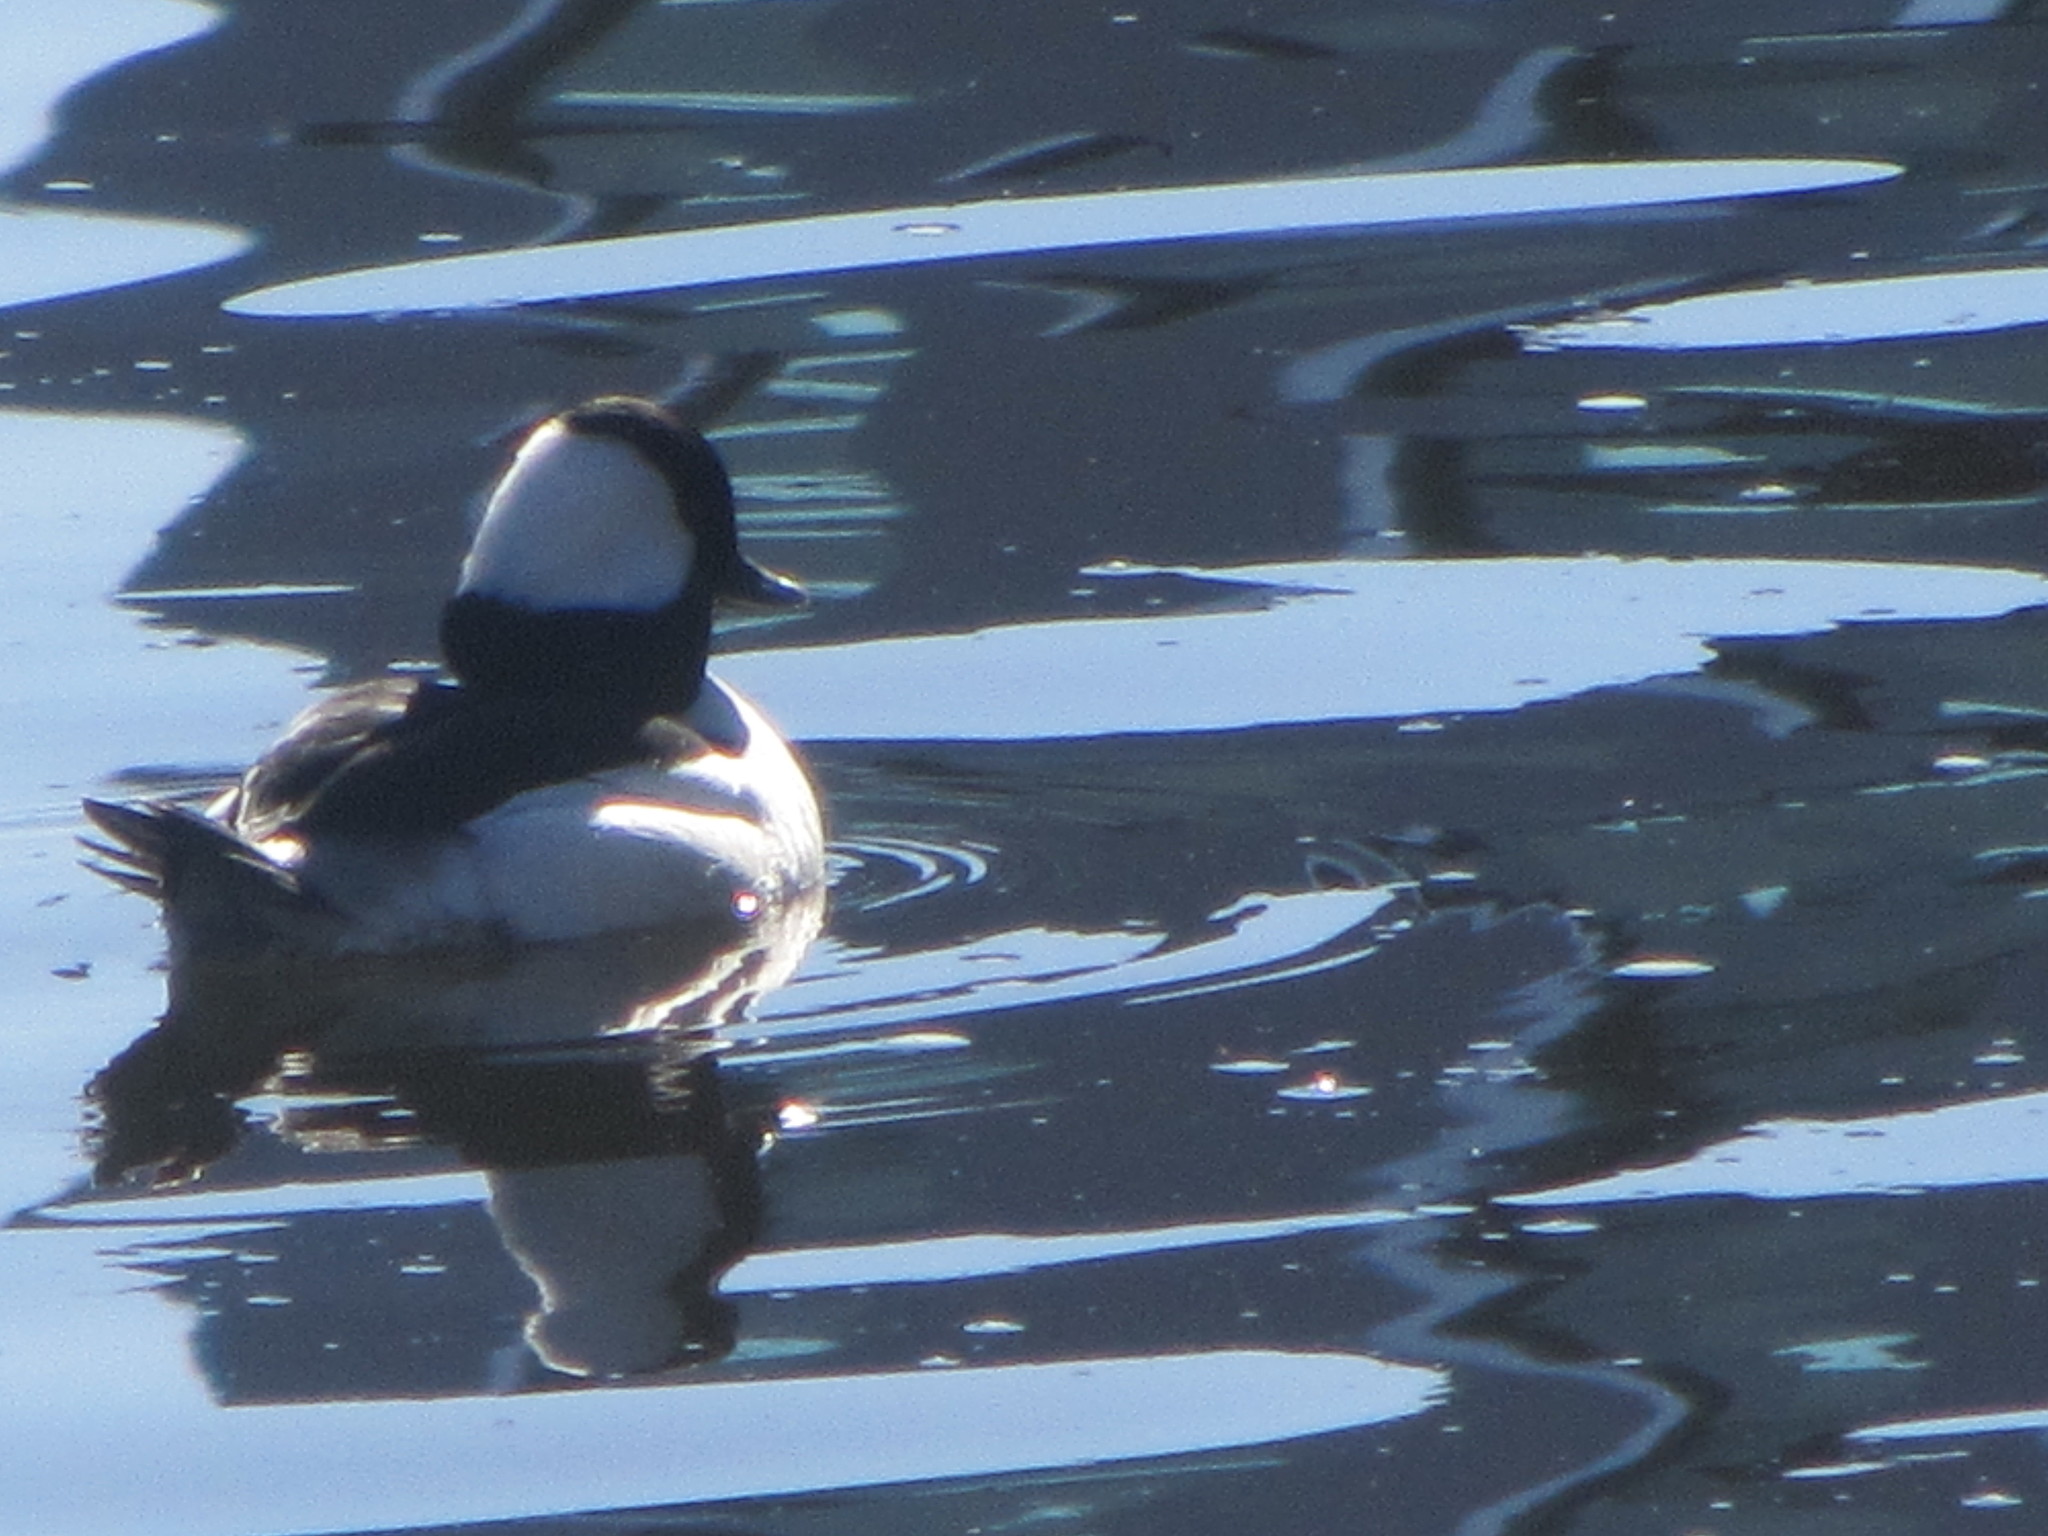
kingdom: Animalia
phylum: Chordata
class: Aves
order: Anseriformes
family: Anatidae
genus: Bucephala
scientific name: Bucephala albeola
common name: Bufflehead
